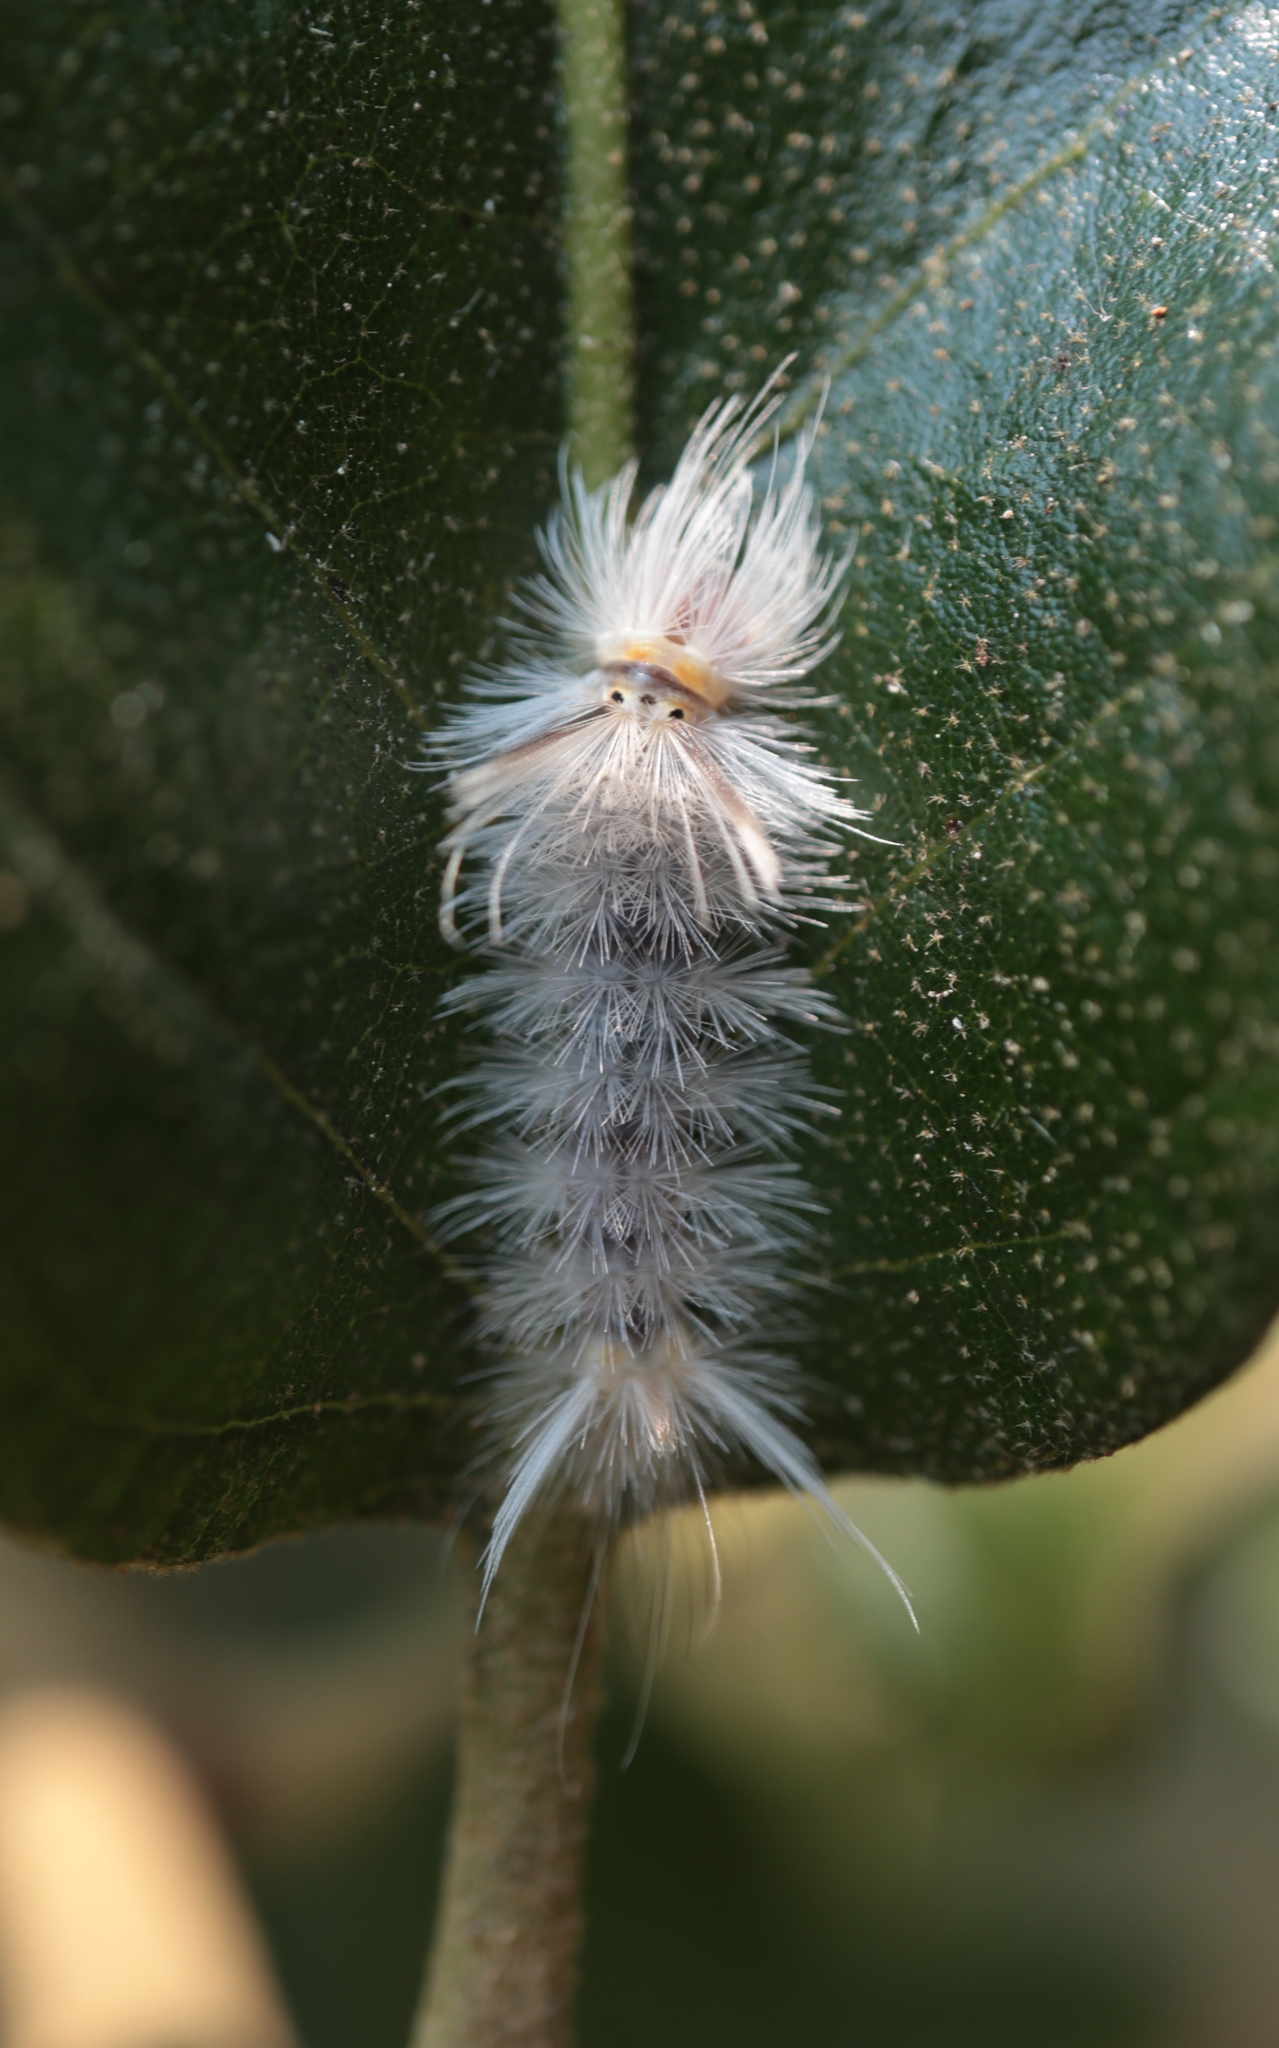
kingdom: Animalia
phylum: Arthropoda
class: Insecta
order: Lepidoptera
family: Erebidae
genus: Halysidota
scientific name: Halysidota tessellaris
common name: Banded tussock moth
